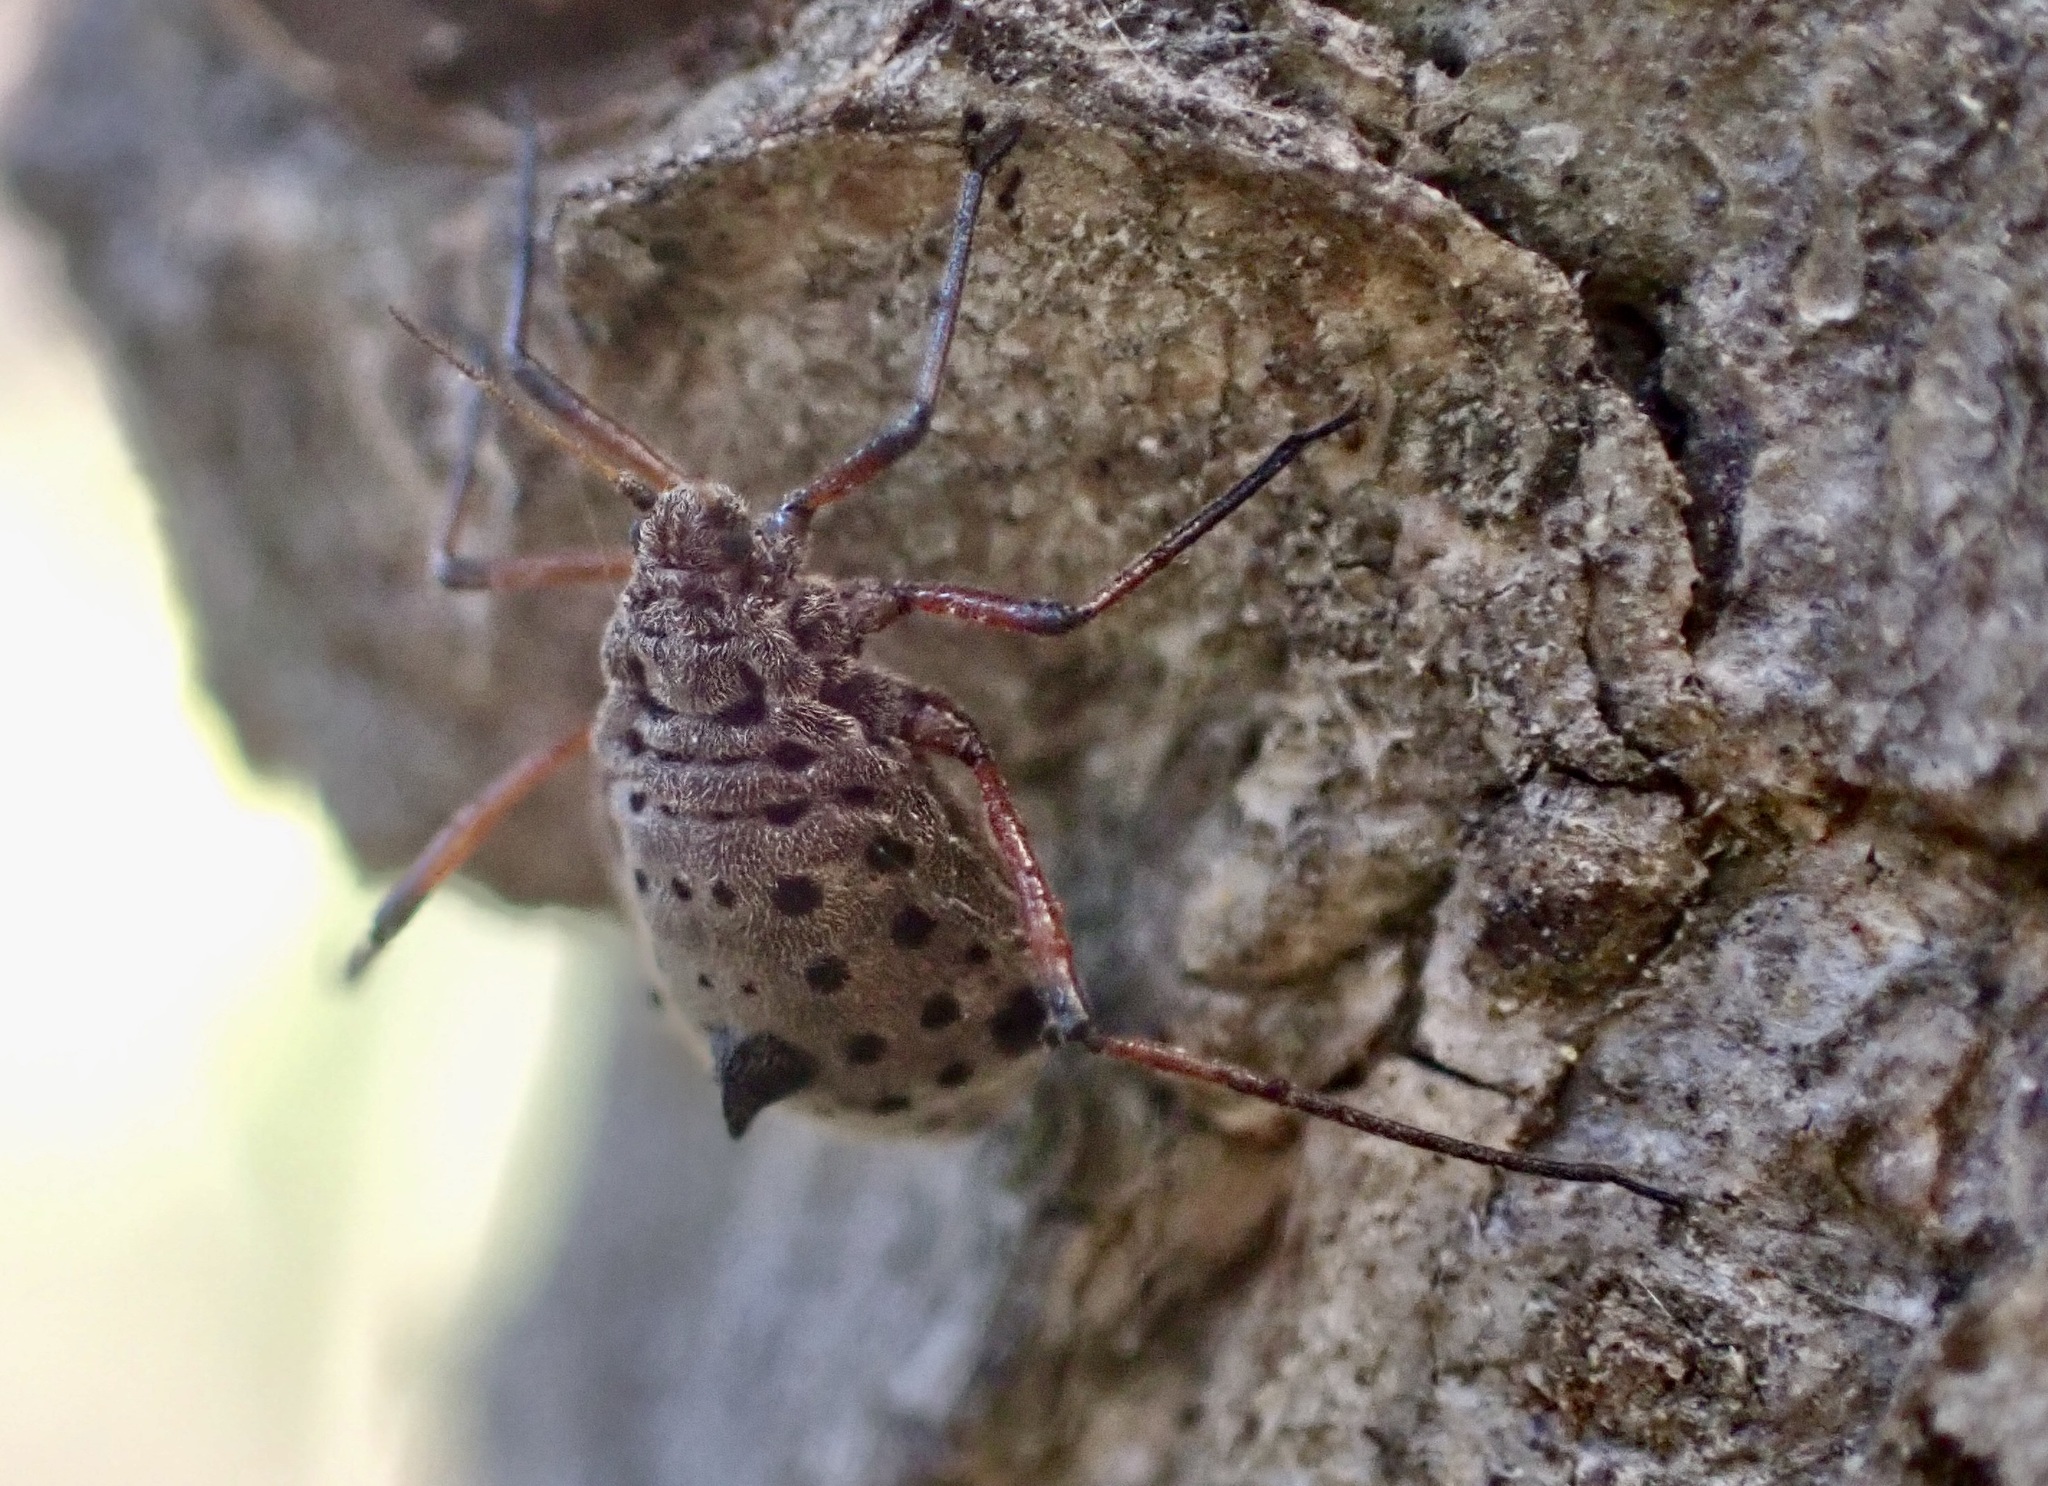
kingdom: Animalia
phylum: Arthropoda
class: Insecta
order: Hemiptera
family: Aphididae
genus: Tuberolachnus
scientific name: Tuberolachnus salignus
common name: Giant willow aphid
